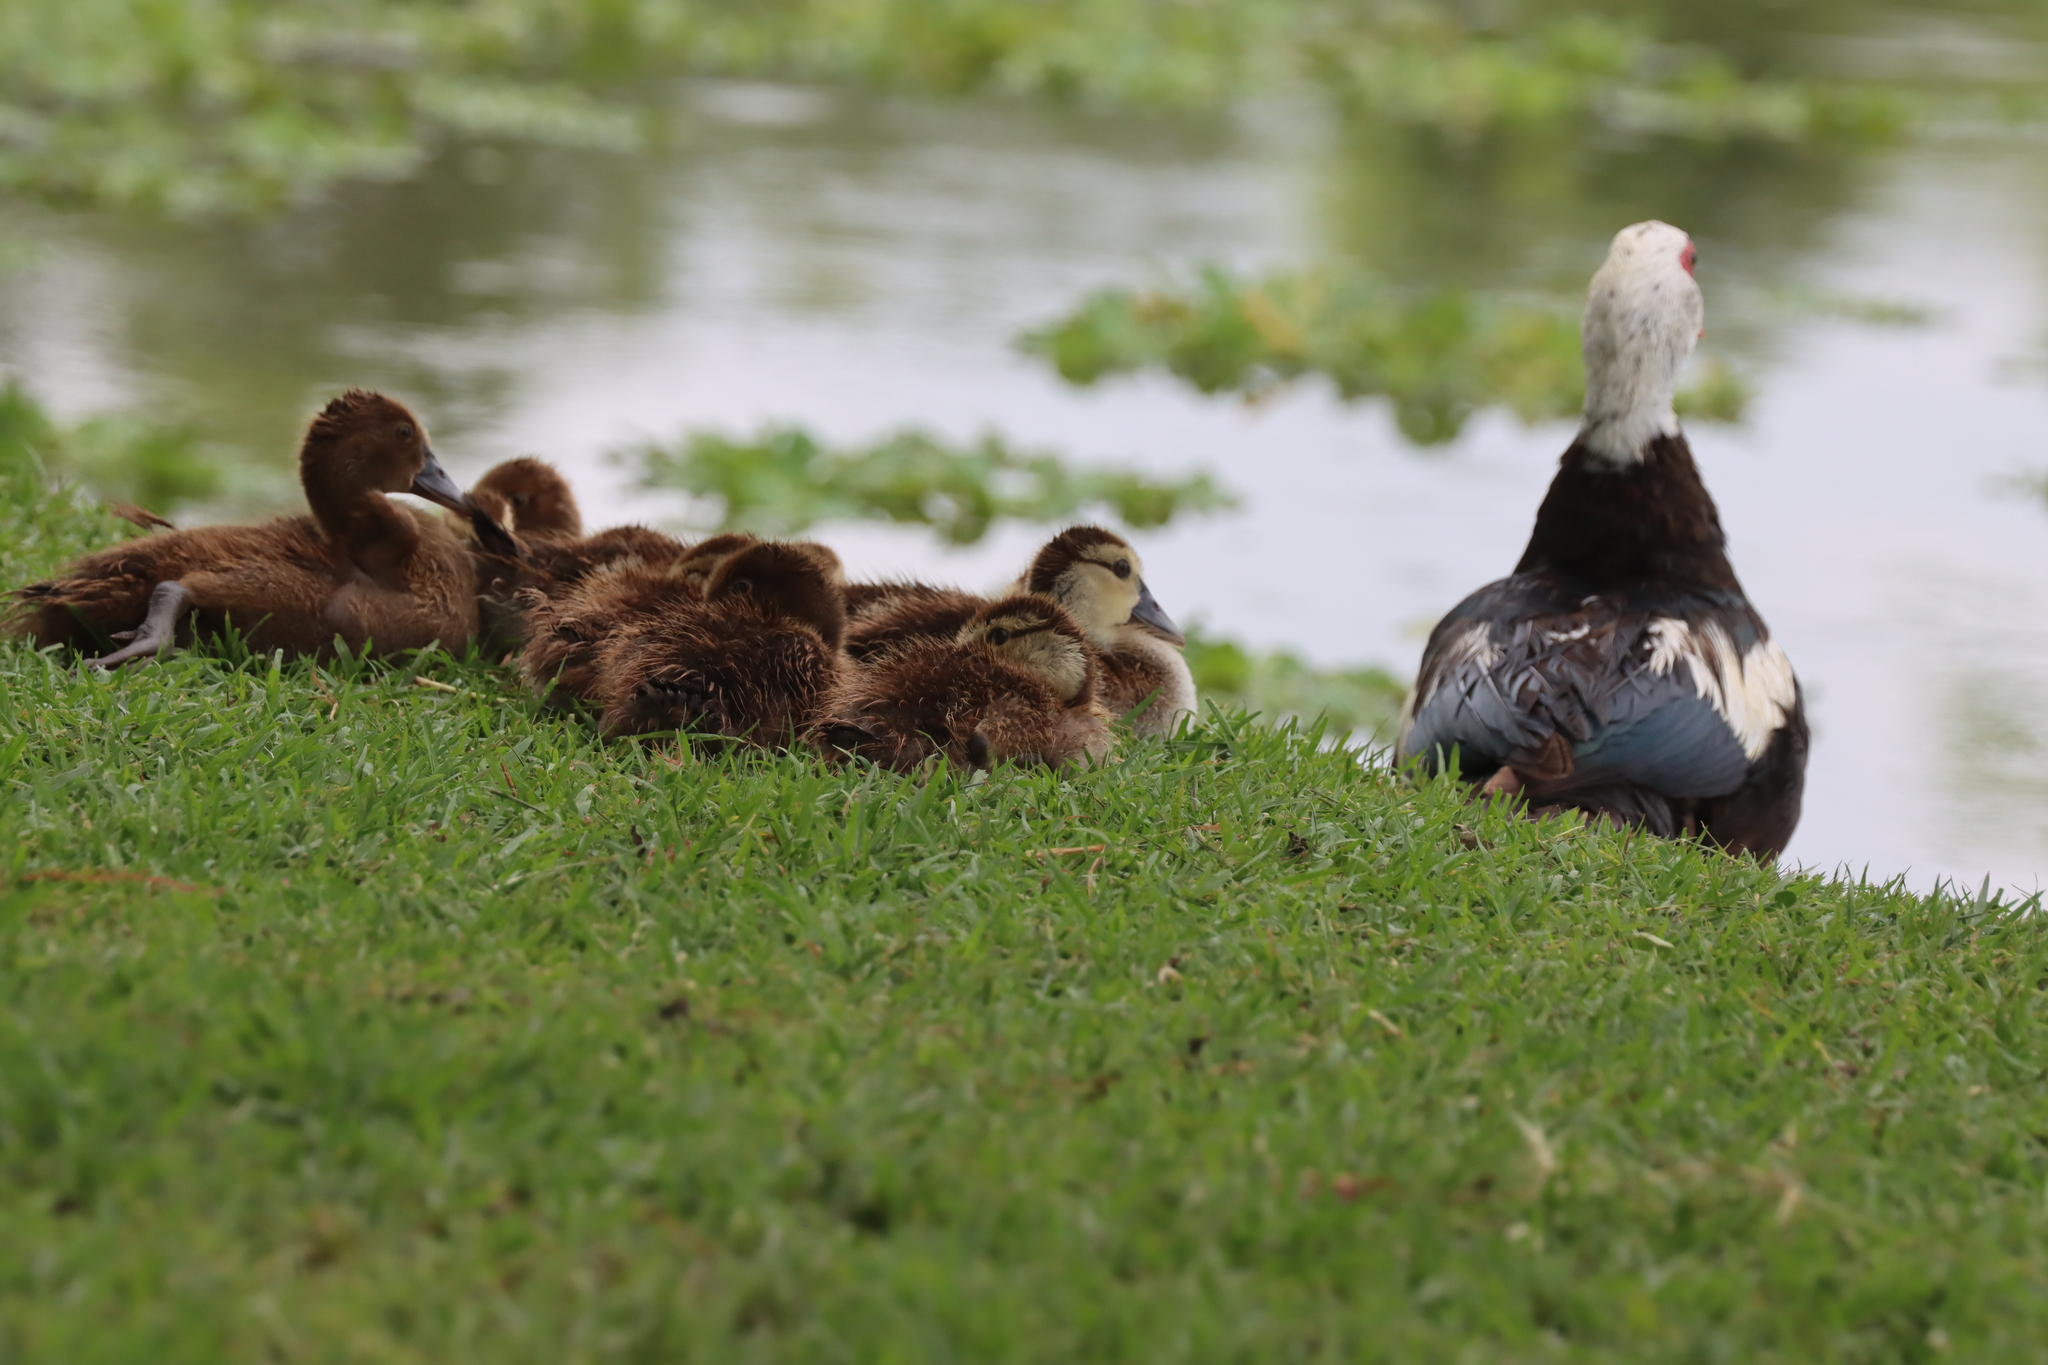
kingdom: Animalia
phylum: Chordata
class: Aves
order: Anseriformes
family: Anatidae
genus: Cairina
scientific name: Cairina moschata
